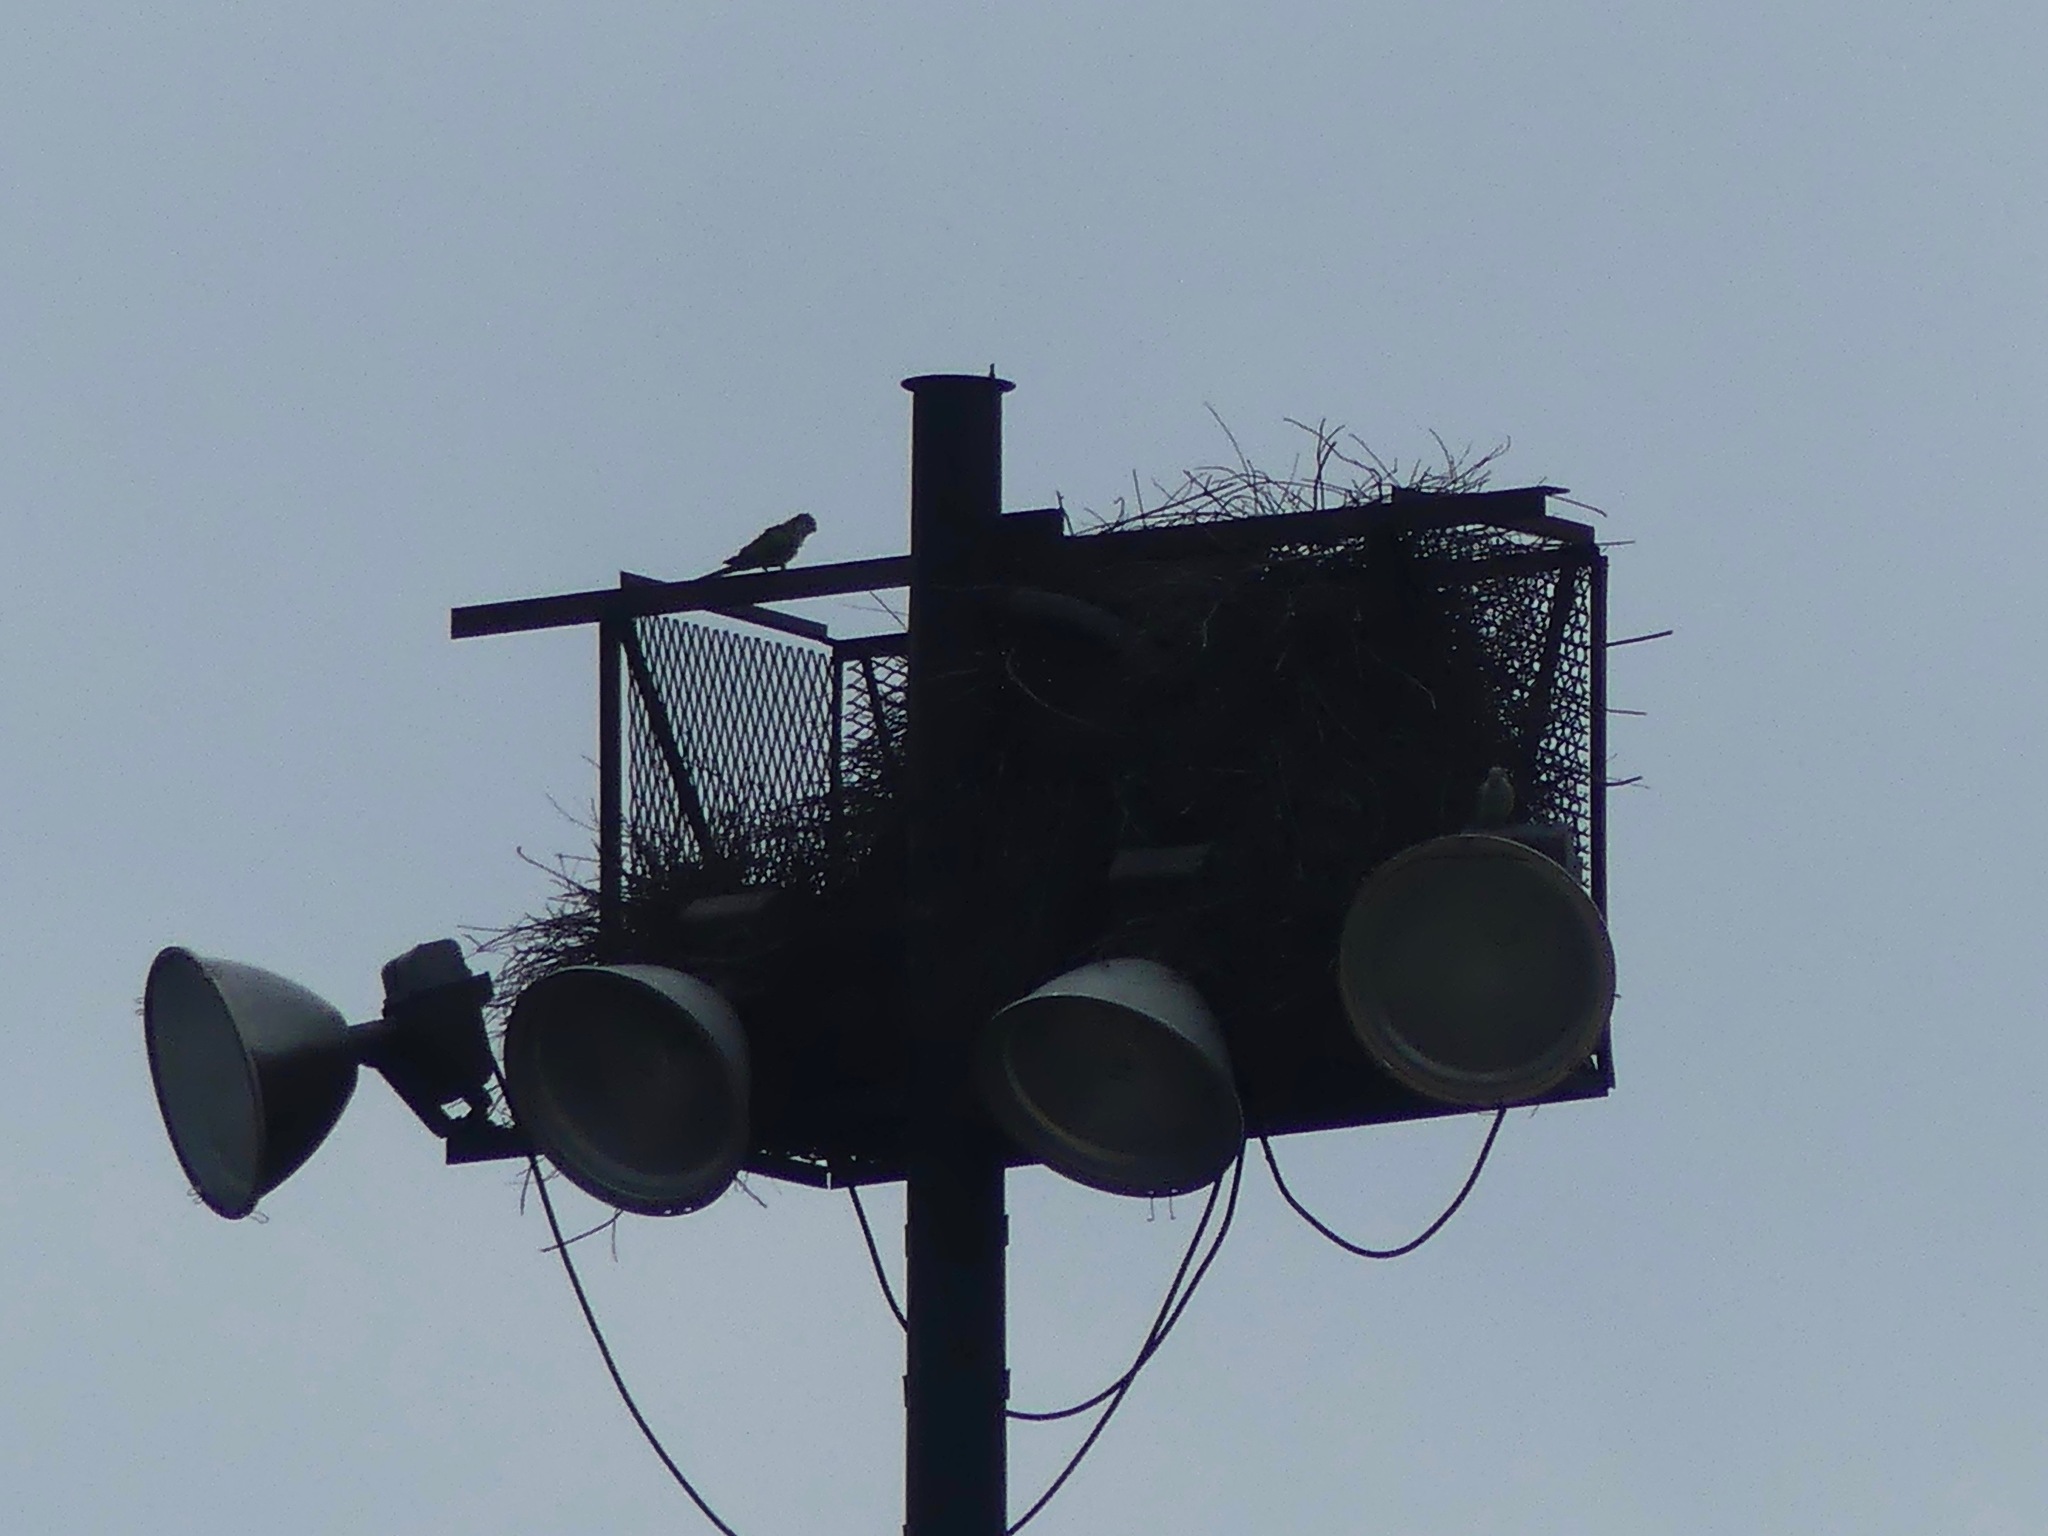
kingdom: Animalia
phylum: Chordata
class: Aves
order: Psittaciformes
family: Psittacidae
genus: Myiopsitta
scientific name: Myiopsitta monachus
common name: Monk parakeet
